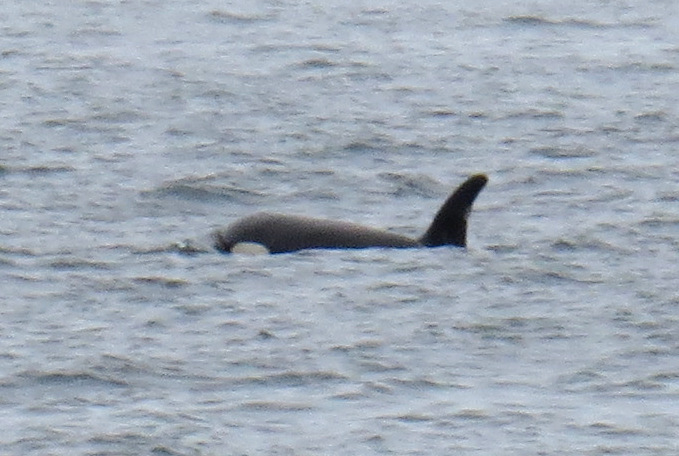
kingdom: Animalia
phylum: Chordata
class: Mammalia
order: Cetacea
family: Delphinidae
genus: Orcinus
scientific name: Orcinus orca
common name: Killer whale
